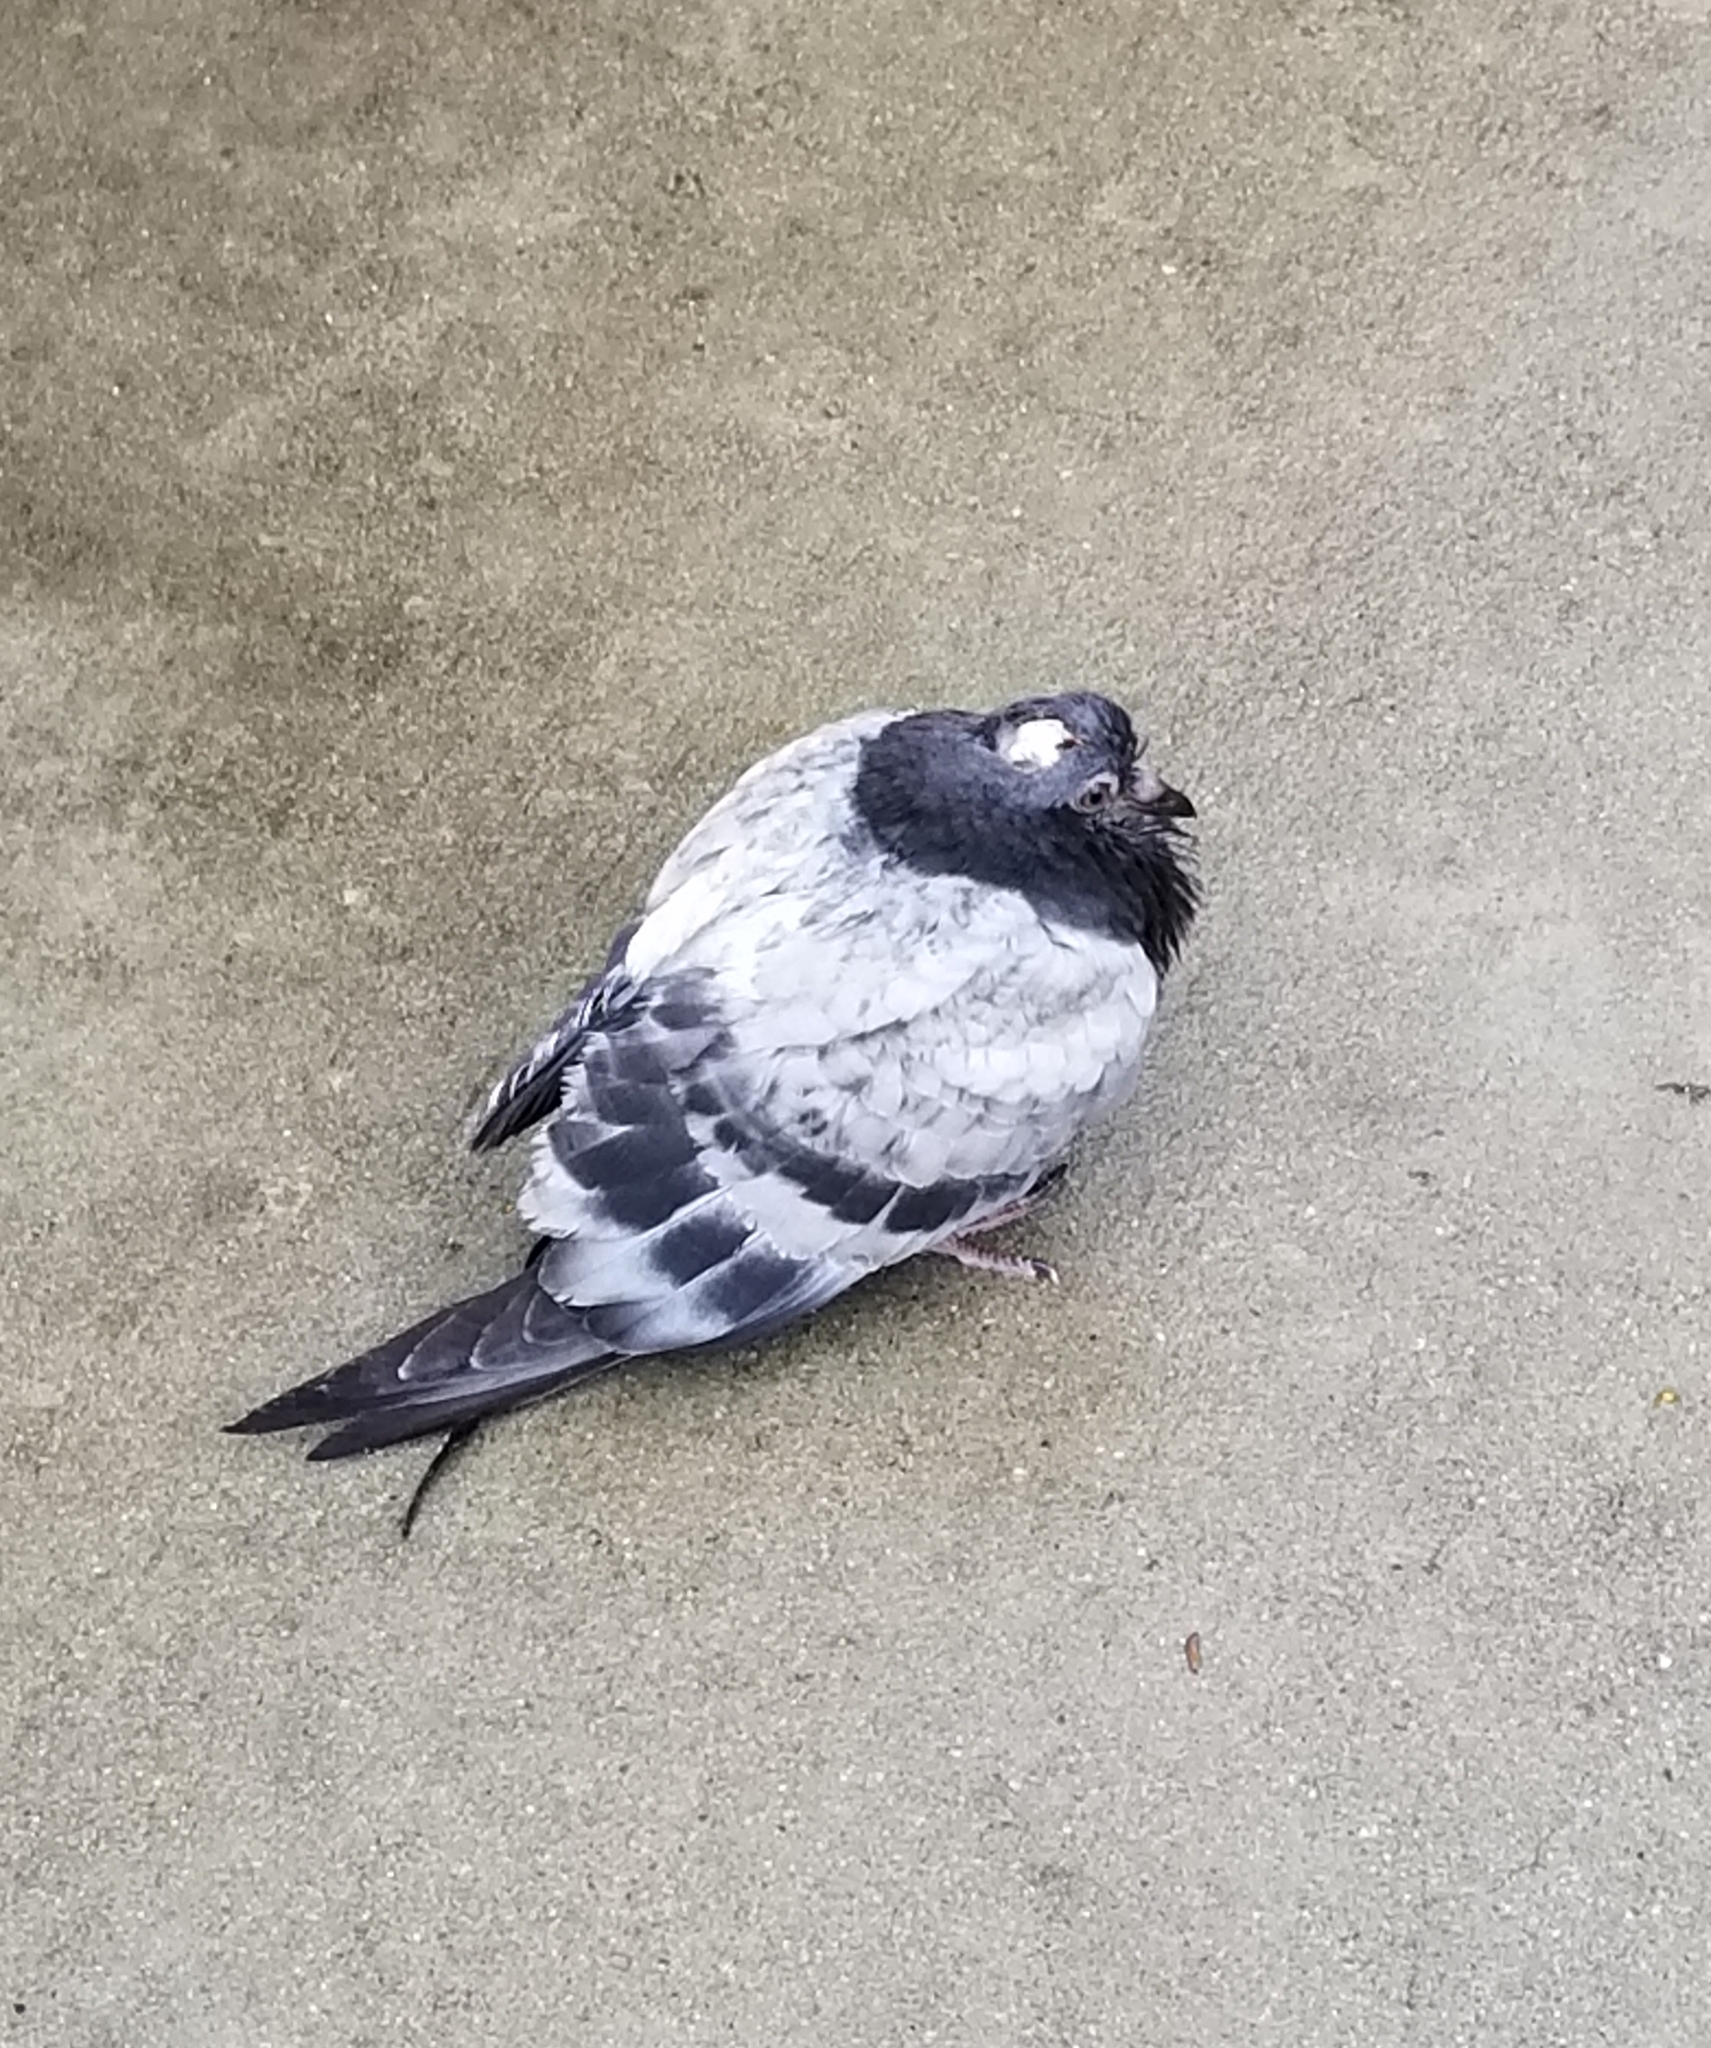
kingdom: Animalia
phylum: Chordata
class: Aves
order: Columbiformes
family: Columbidae
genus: Columba
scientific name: Columba livia
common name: Rock pigeon
